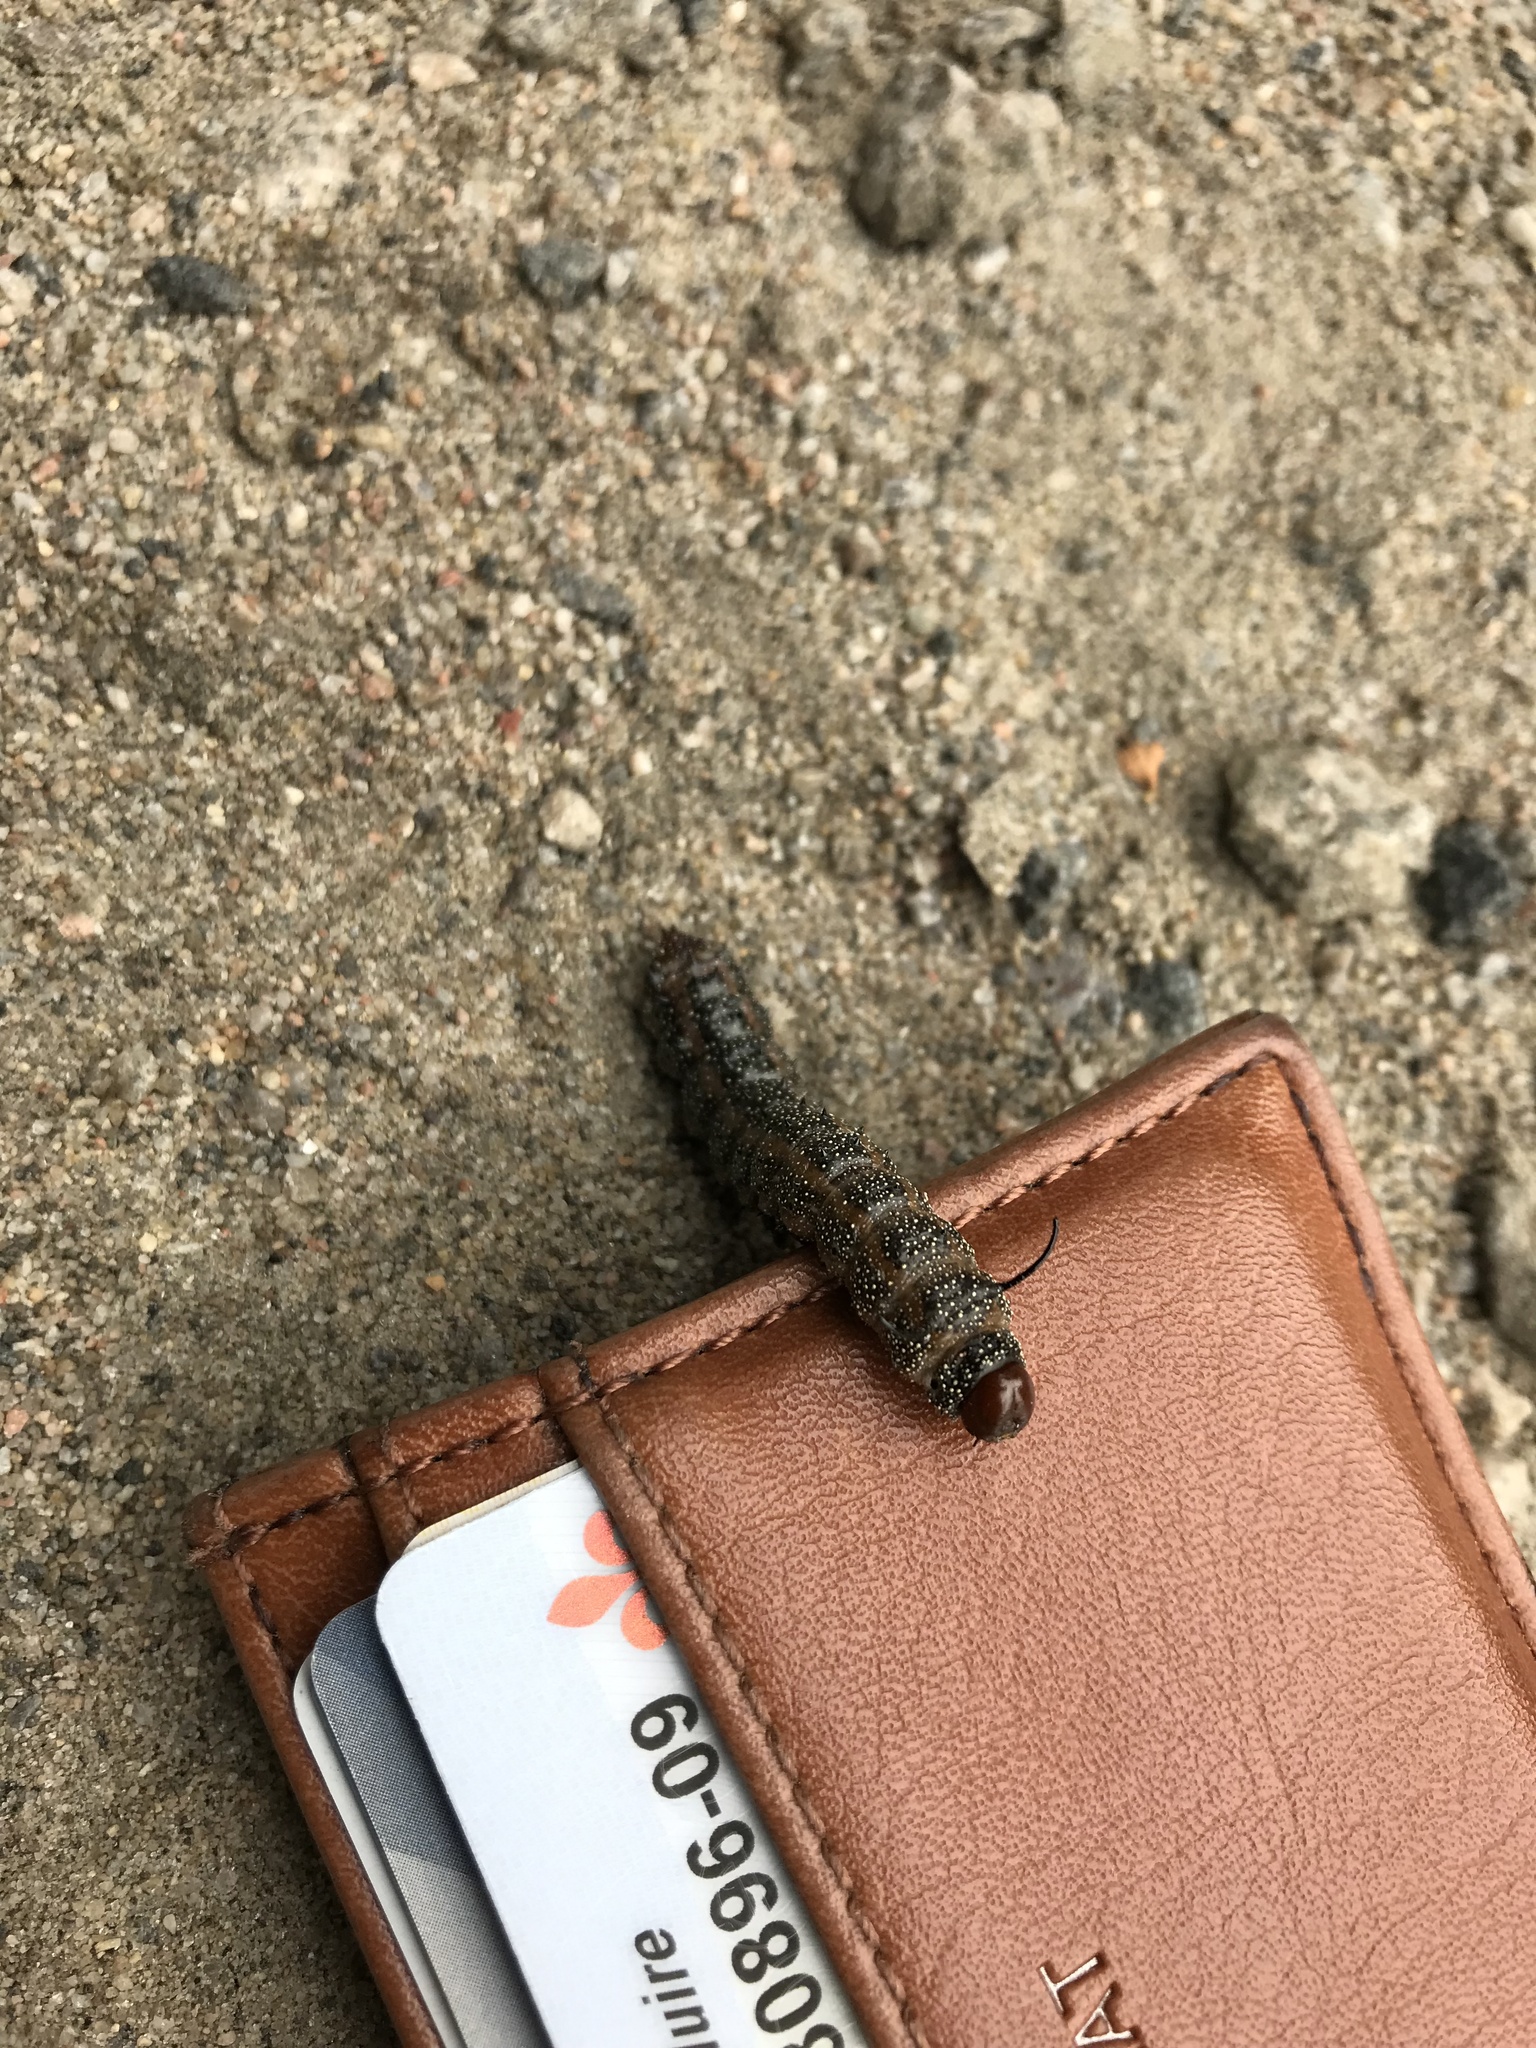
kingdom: Animalia
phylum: Arthropoda
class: Insecta
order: Lepidoptera
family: Saturniidae
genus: Anisota
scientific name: Anisota virginiensis
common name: Pink striped oakworm moth
